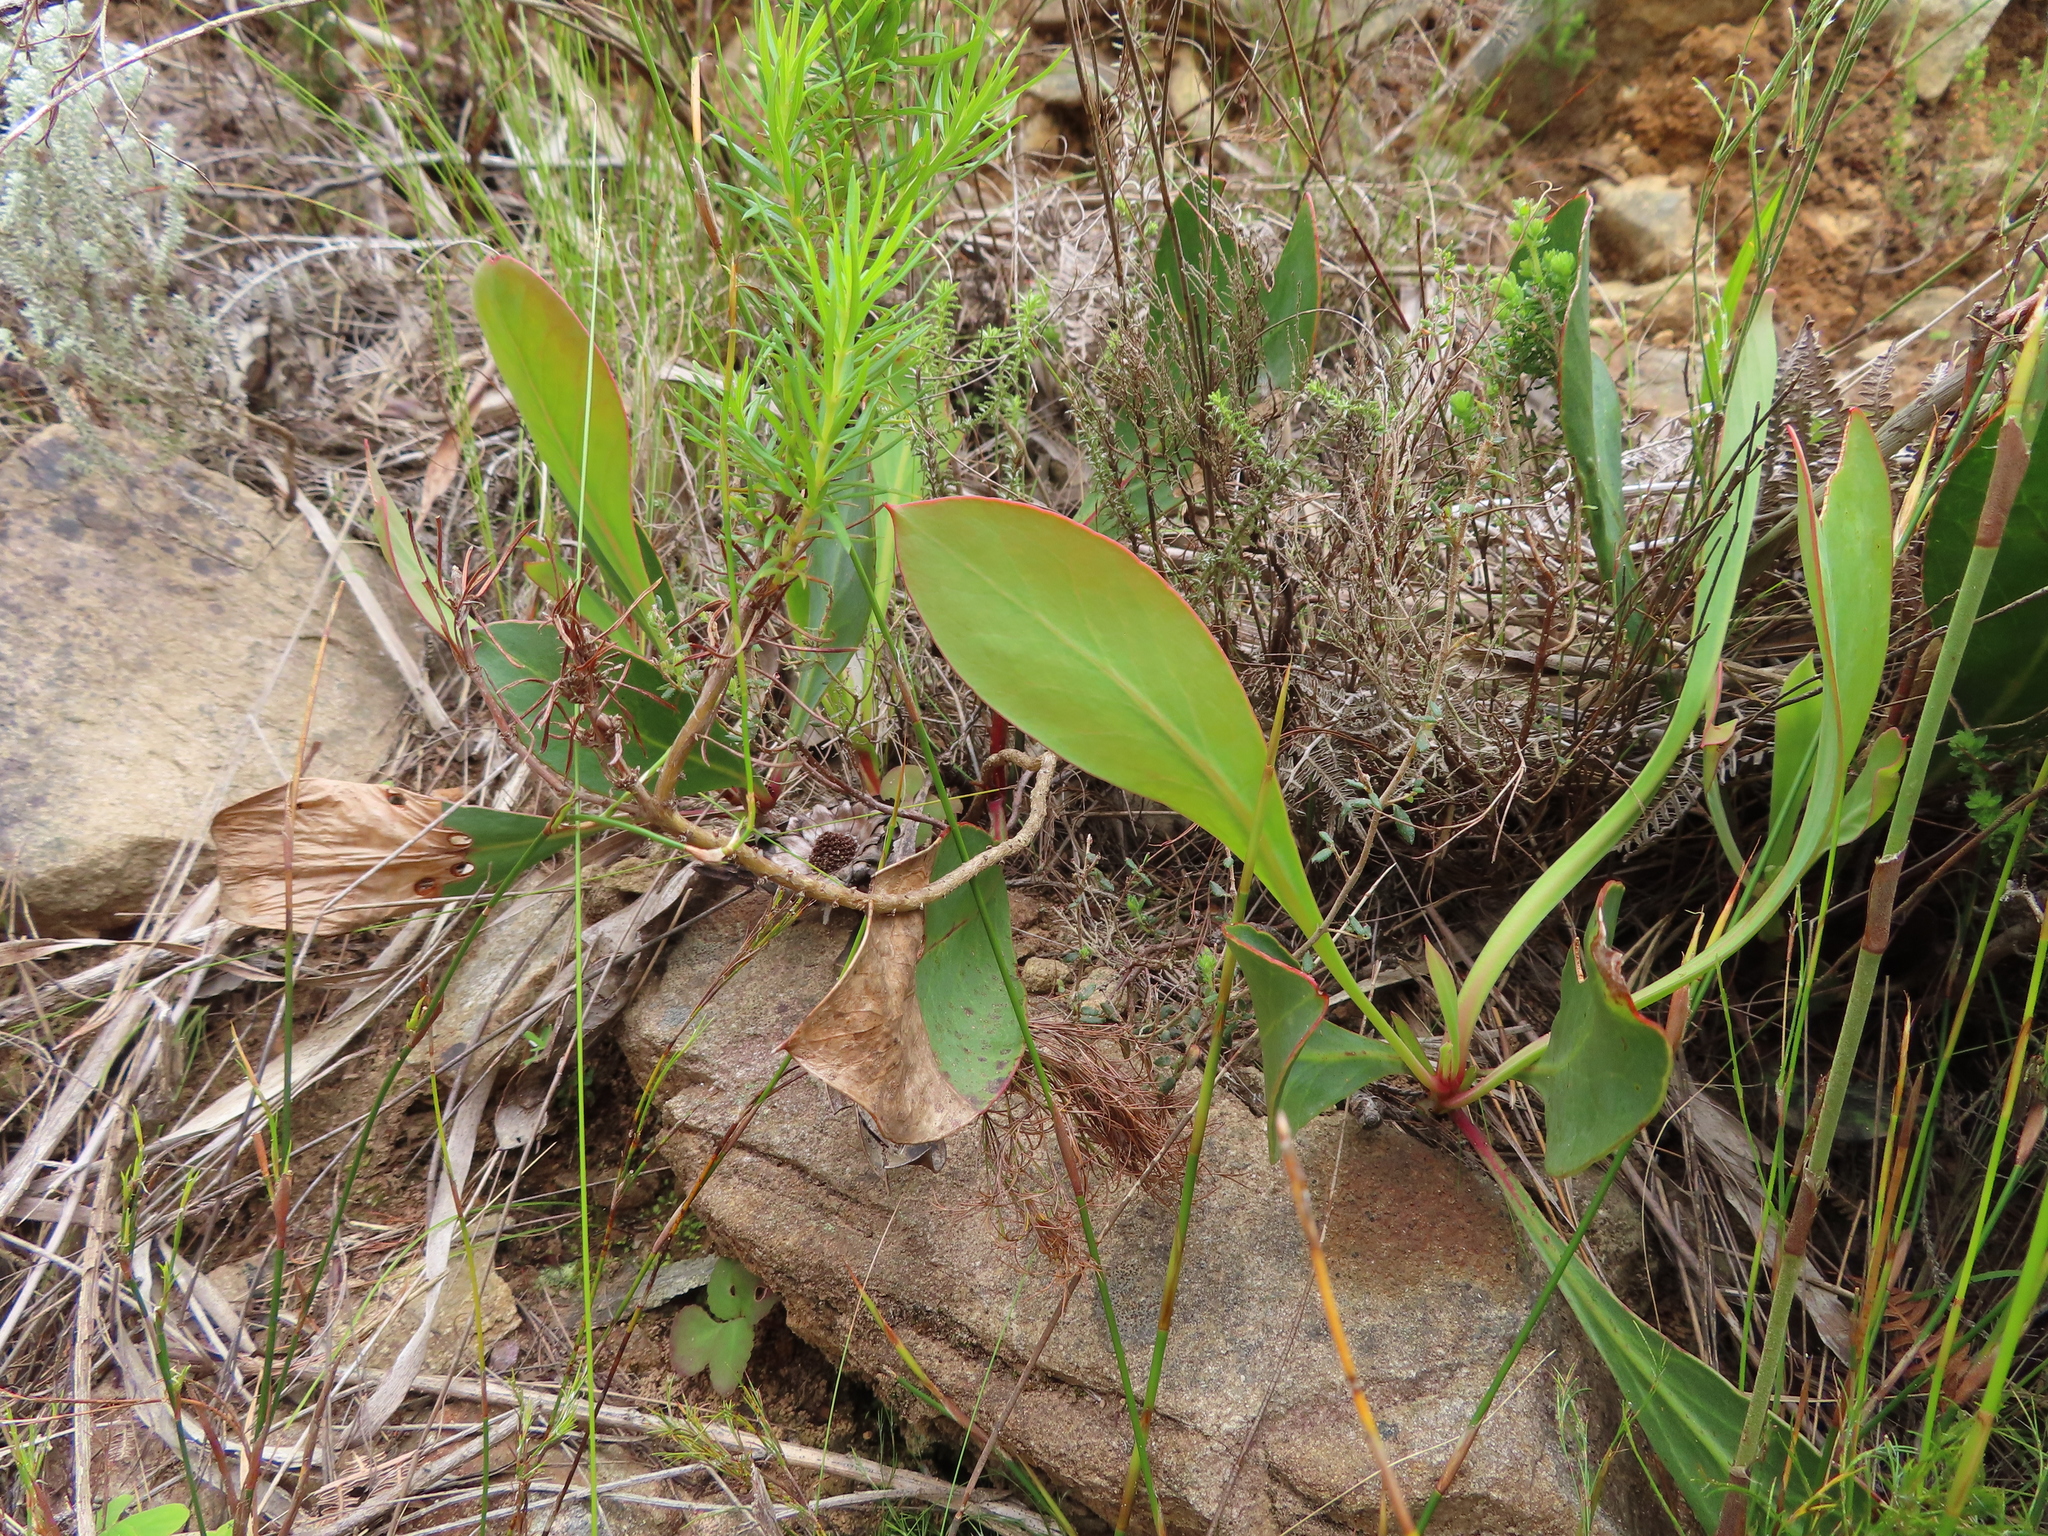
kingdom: Plantae
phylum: Tracheophyta
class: Magnoliopsida
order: Proteales
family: Proteaceae
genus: Protea
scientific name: Protea acaulos
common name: Common ground sugarbush
